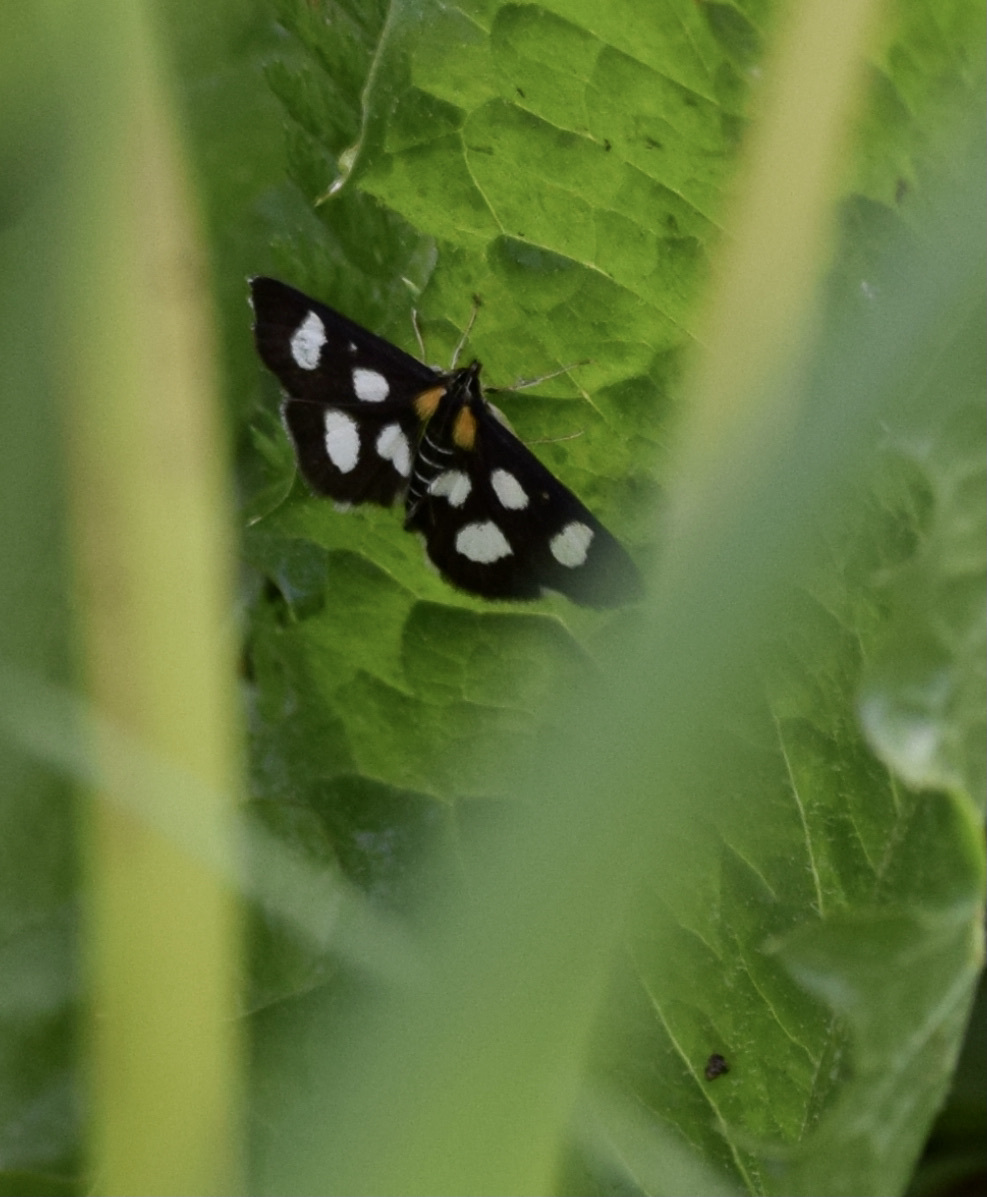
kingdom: Animalia
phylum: Arthropoda
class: Insecta
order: Lepidoptera
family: Crambidae
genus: Anania
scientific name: Anania funebris
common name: White-spotted sable moth
